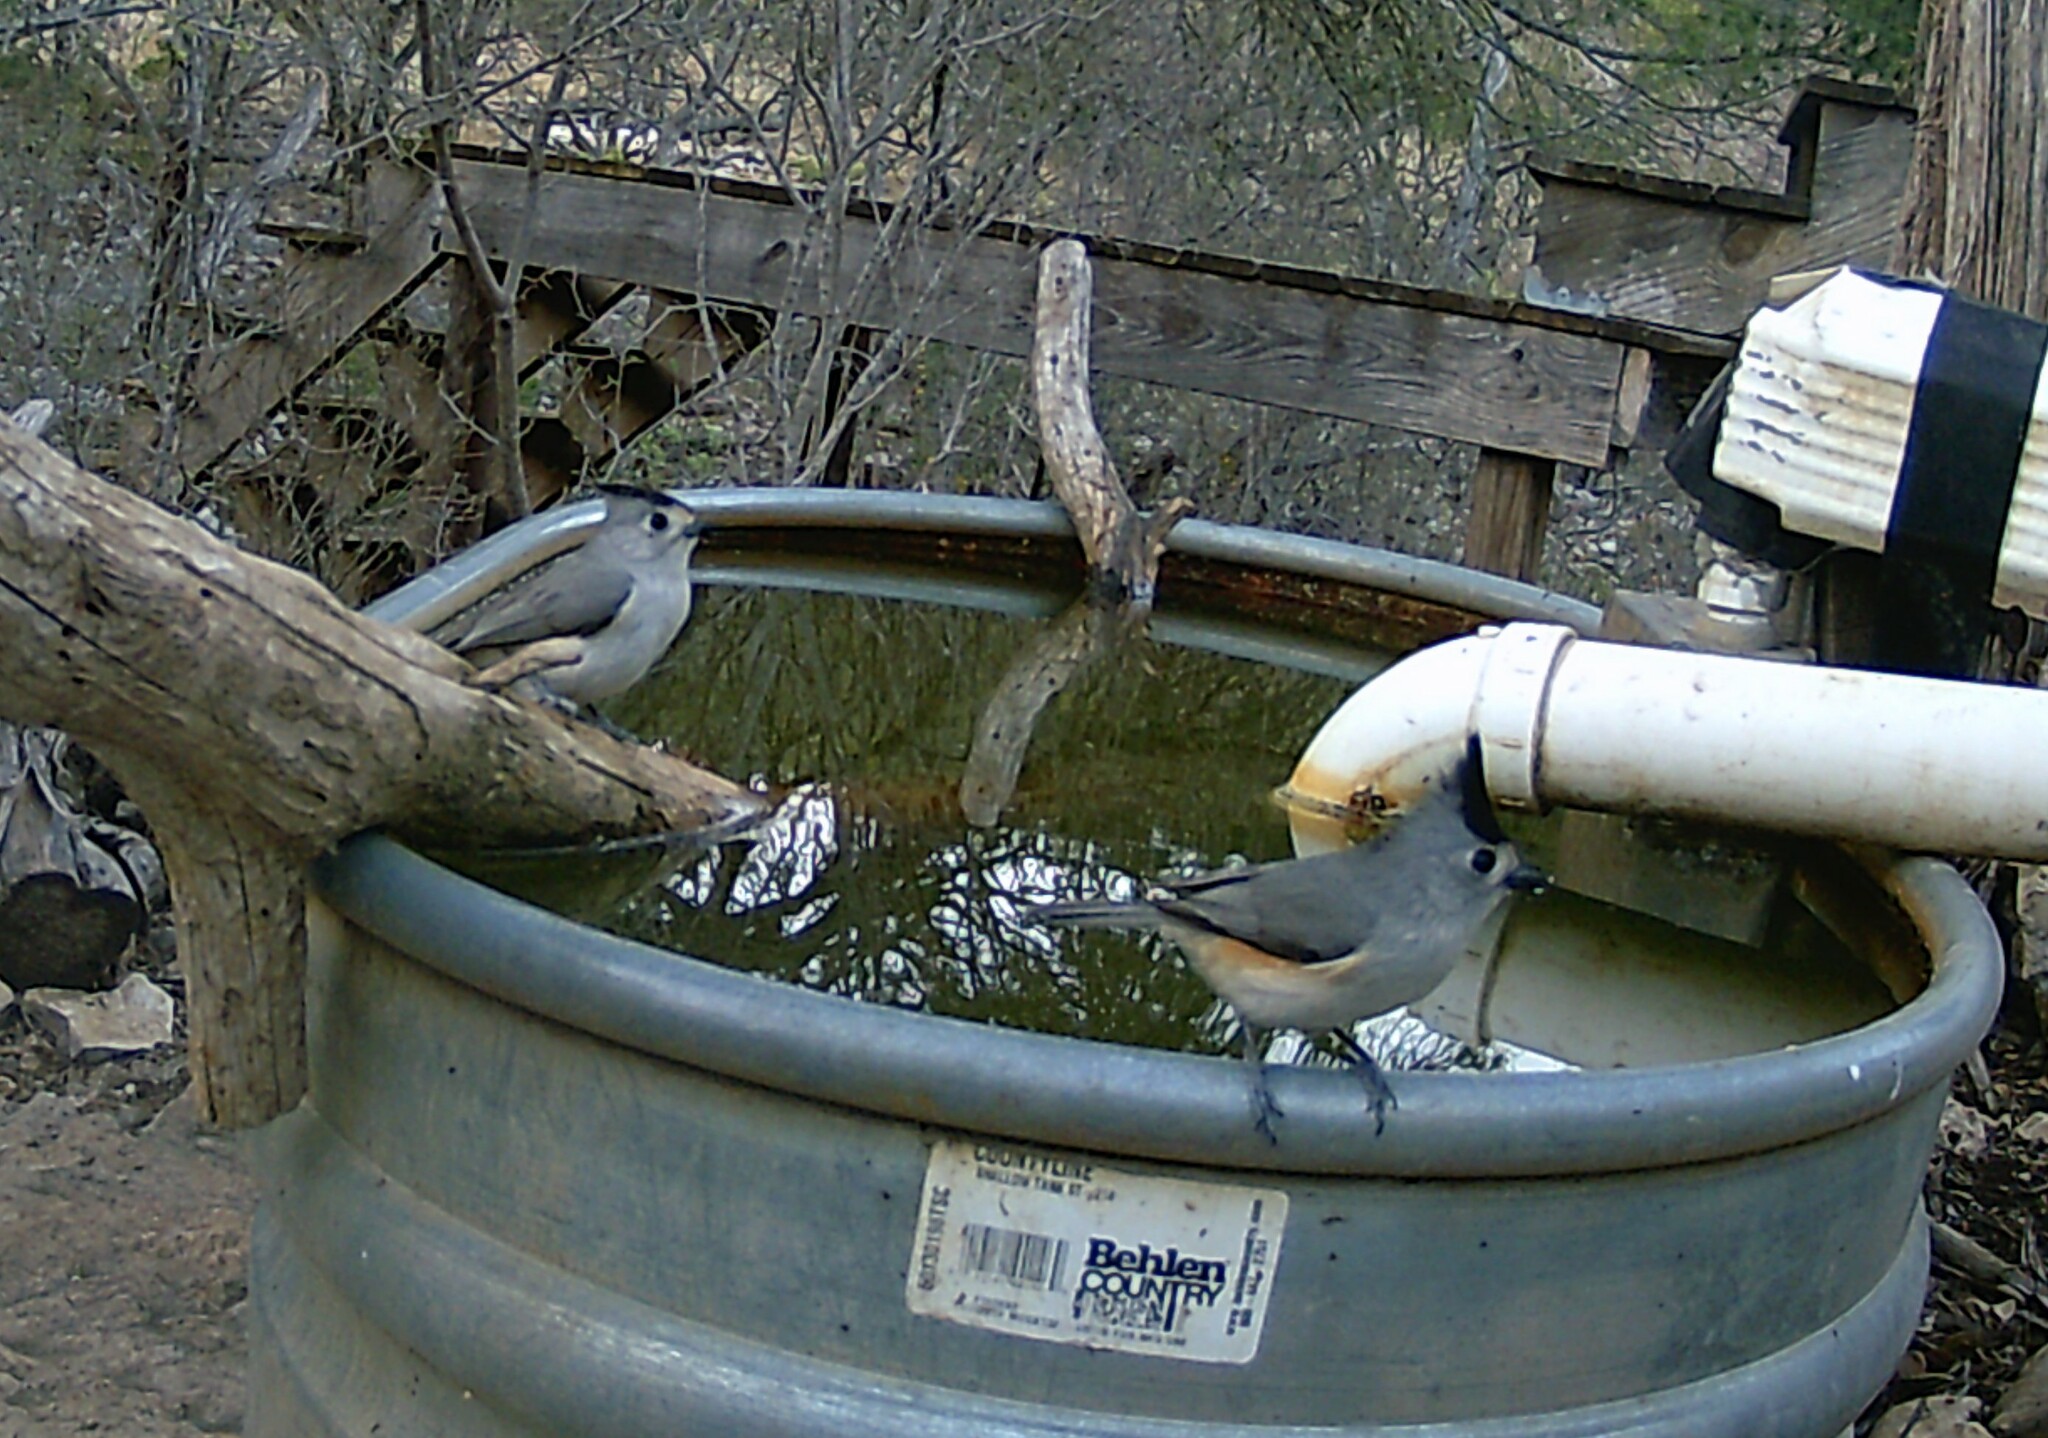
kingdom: Animalia
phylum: Chordata
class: Aves
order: Passeriformes
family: Paridae
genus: Baeolophus
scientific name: Baeolophus atricristatus
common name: Black-crested titmouse
